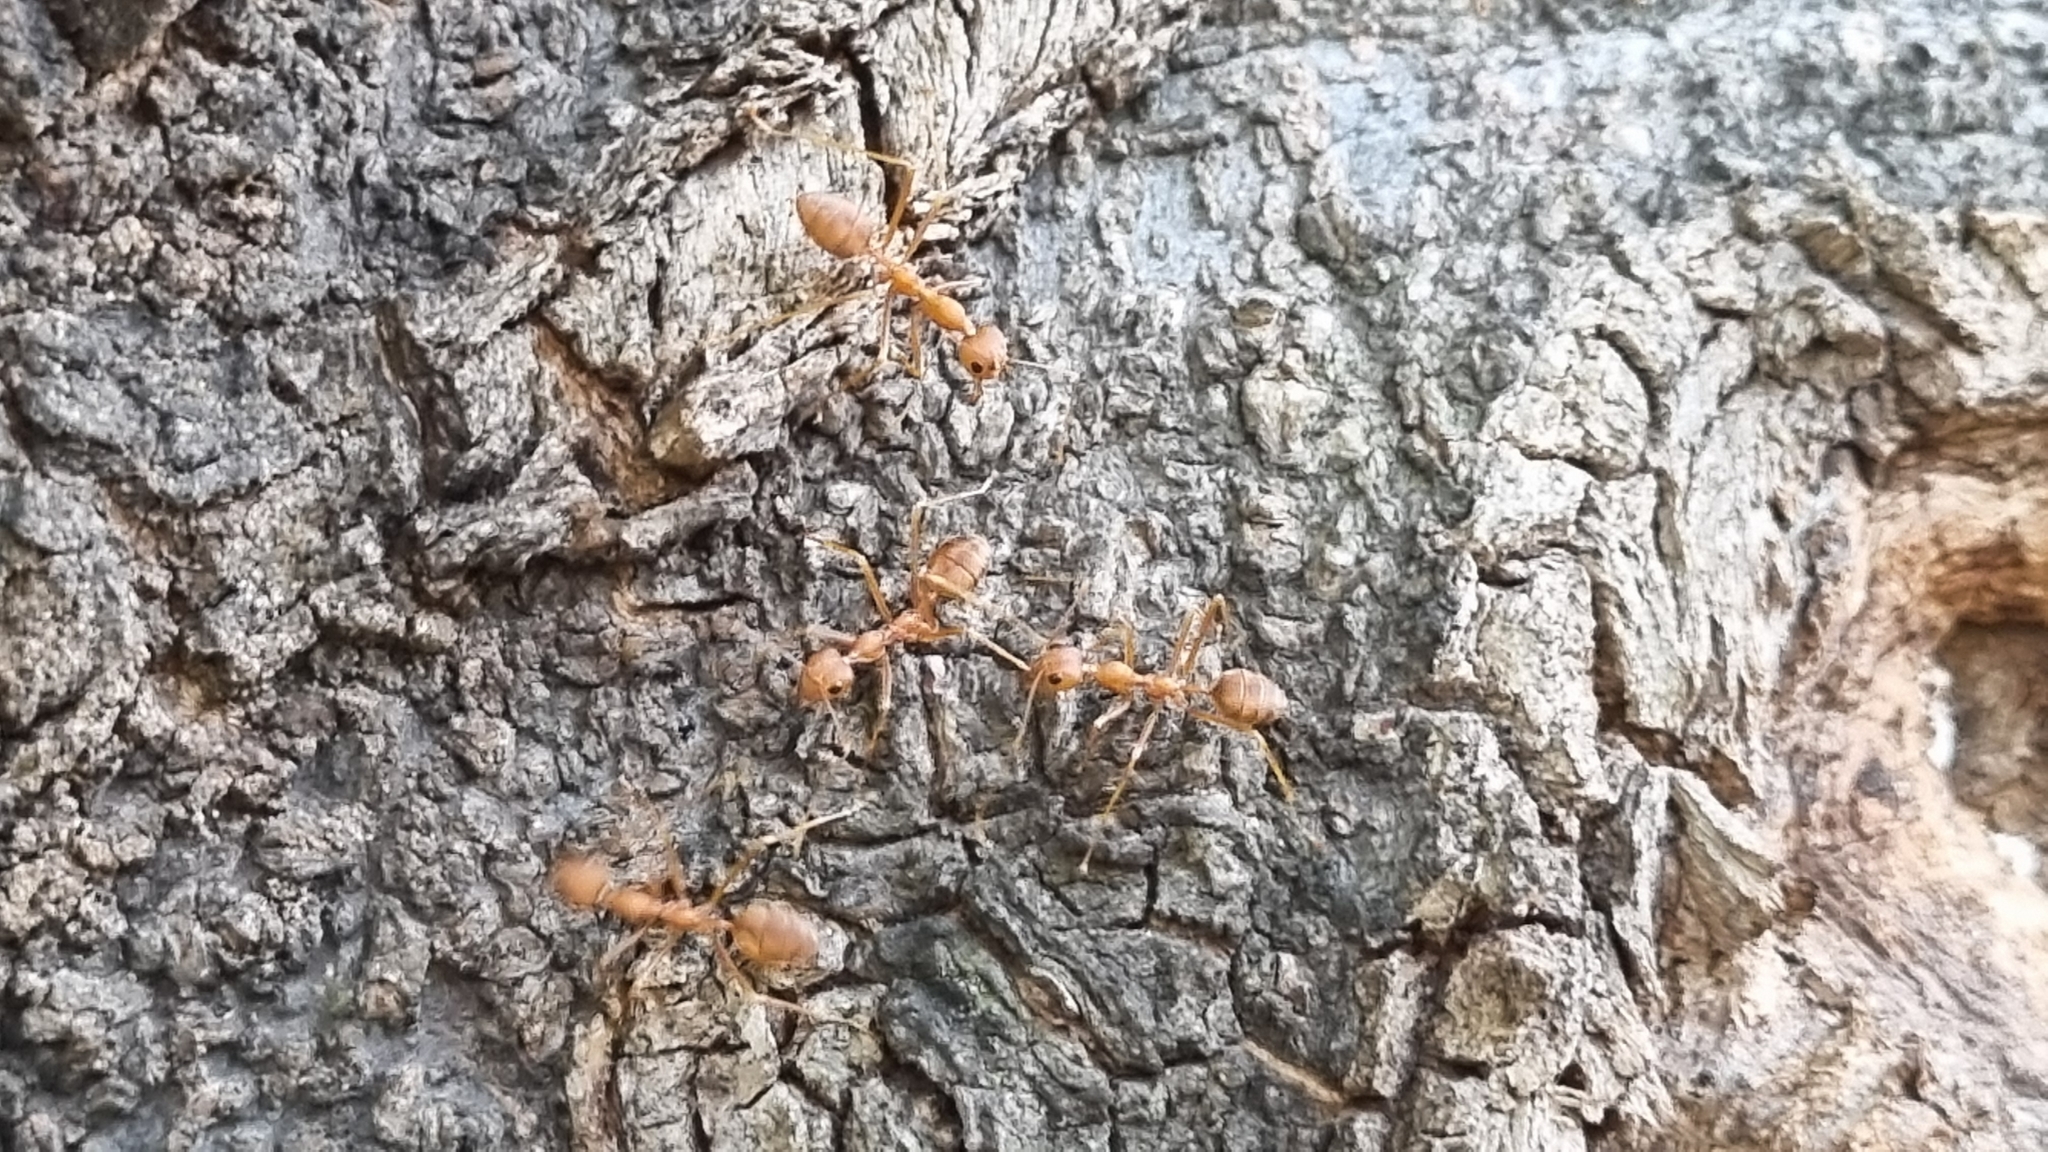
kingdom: Animalia
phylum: Arthropoda
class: Insecta
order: Hymenoptera
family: Formicidae
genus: Oecophylla
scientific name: Oecophylla smaragdina
